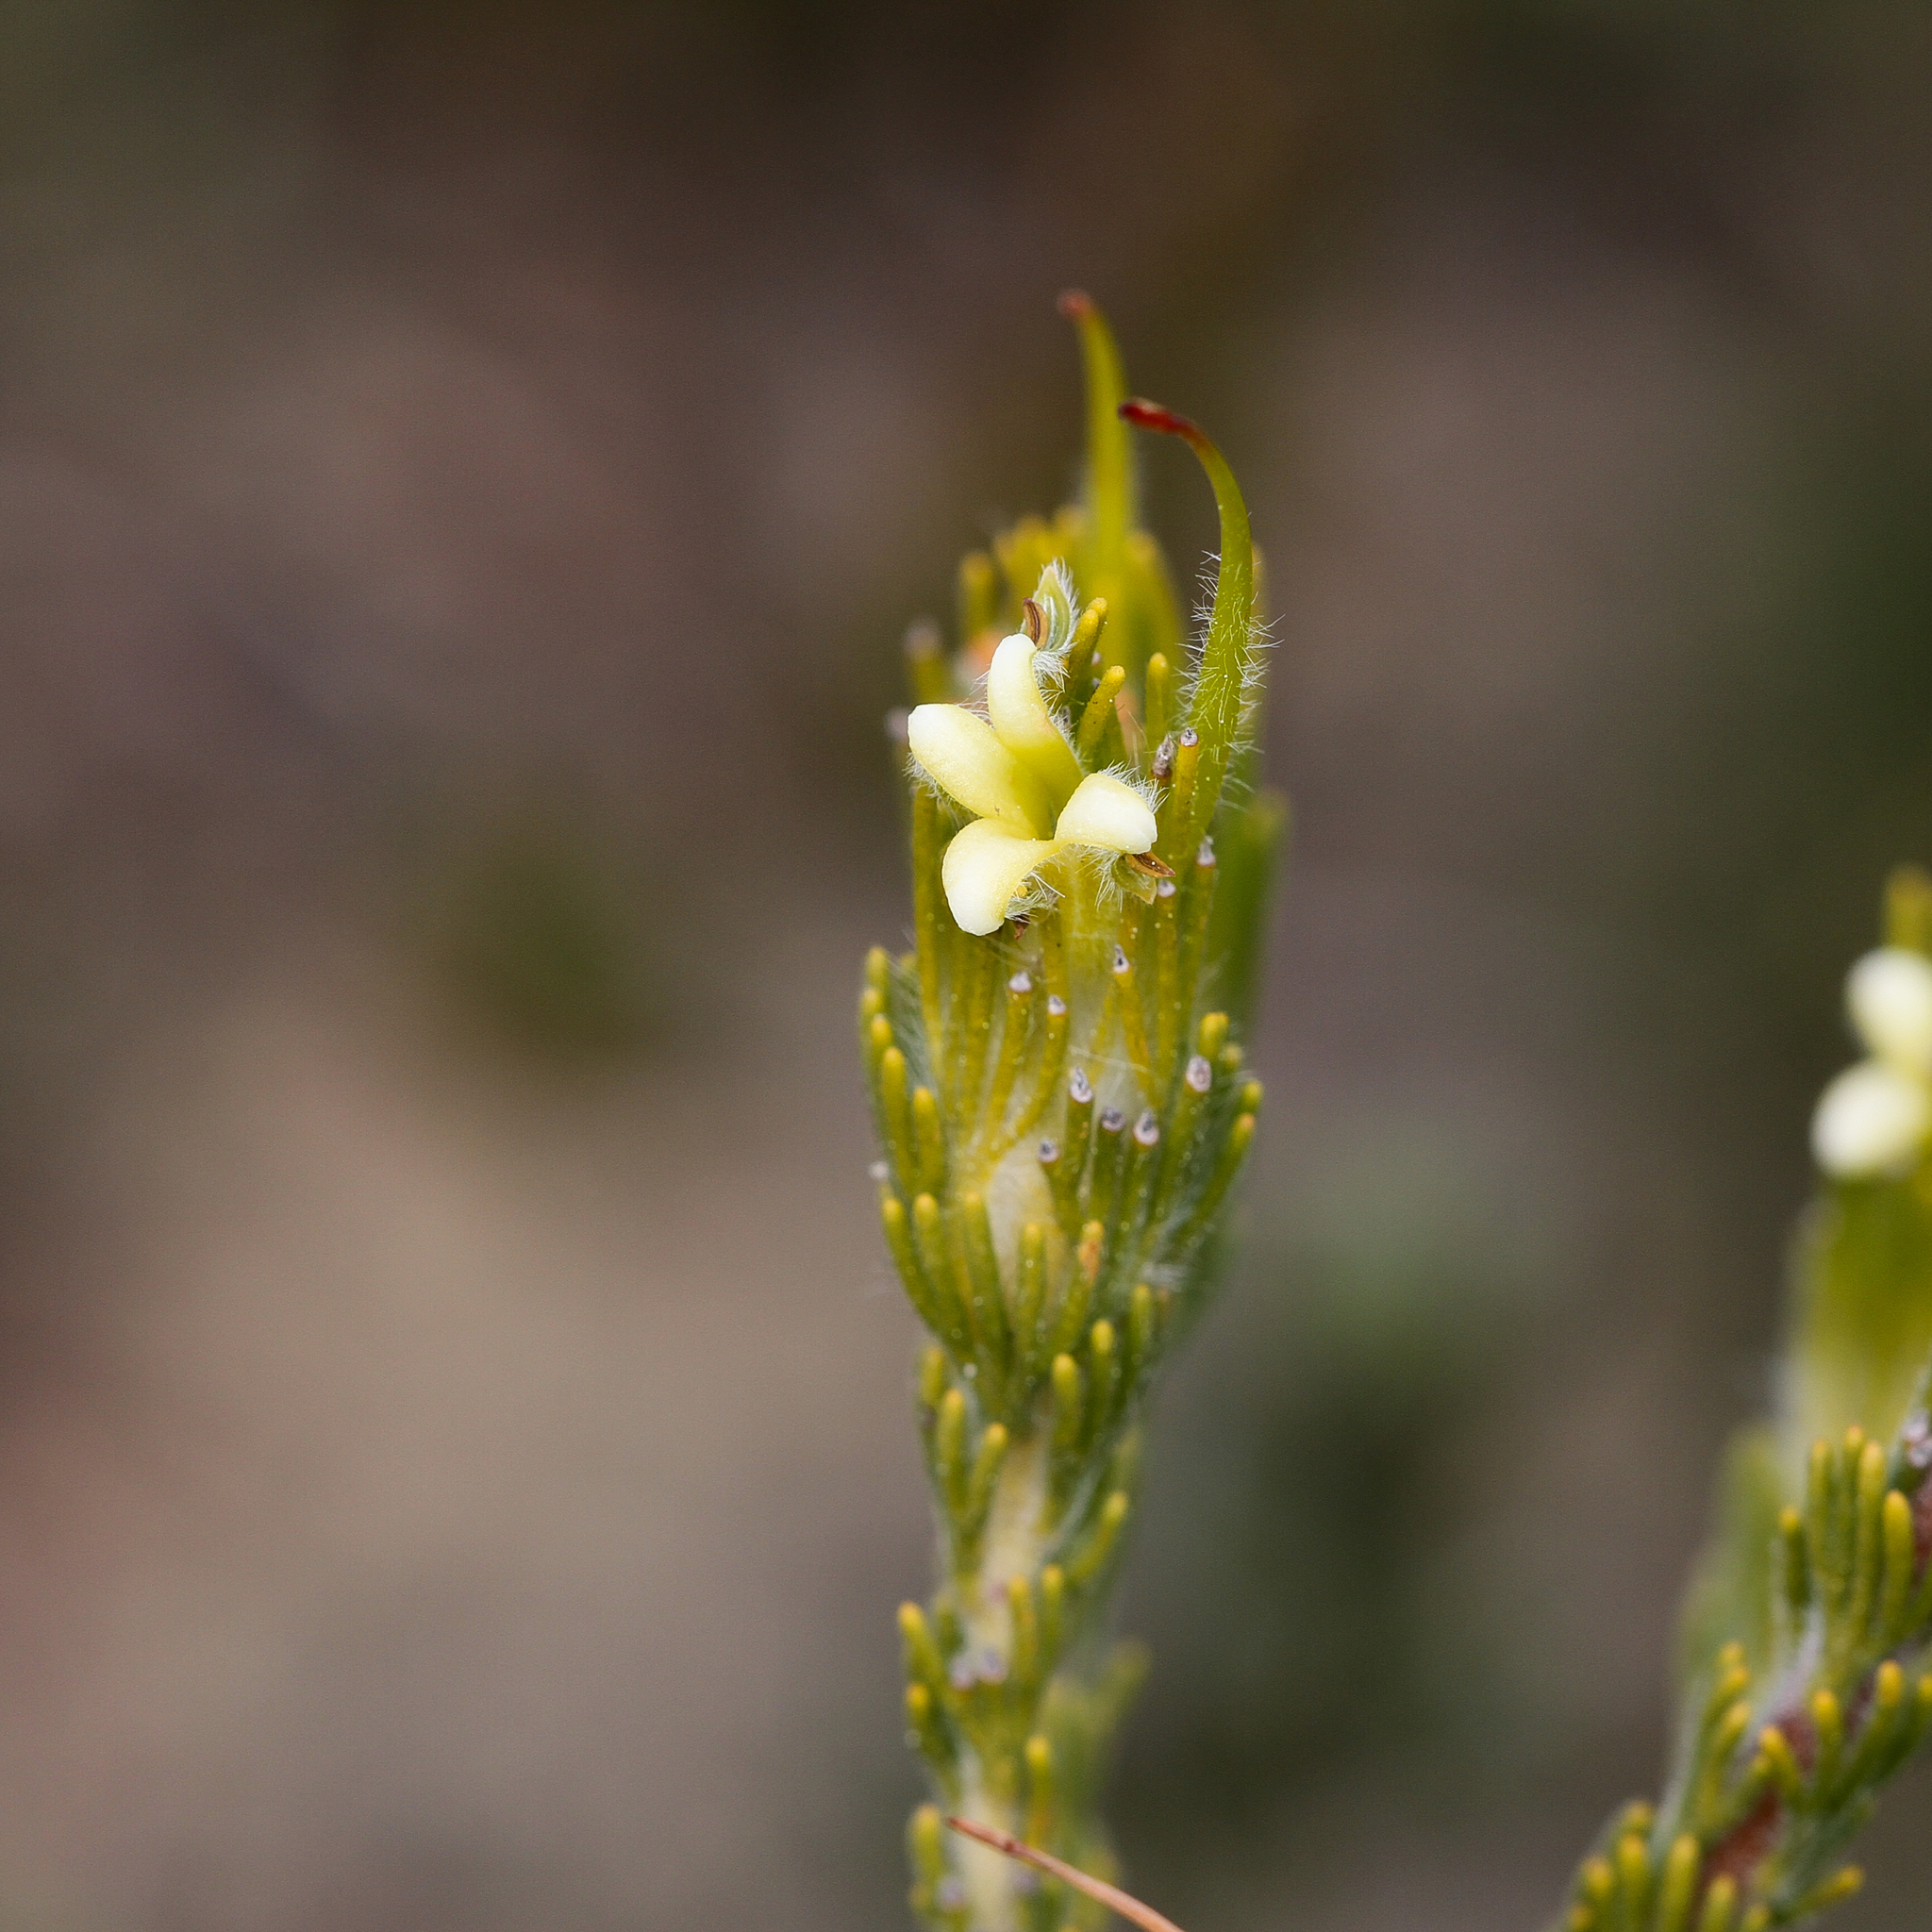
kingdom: Plantae
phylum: Tracheophyta
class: Magnoliopsida
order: Proteales
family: Proteaceae
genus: Adenanthos
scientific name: Adenanthos terminalis
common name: Yellow gland-flower
